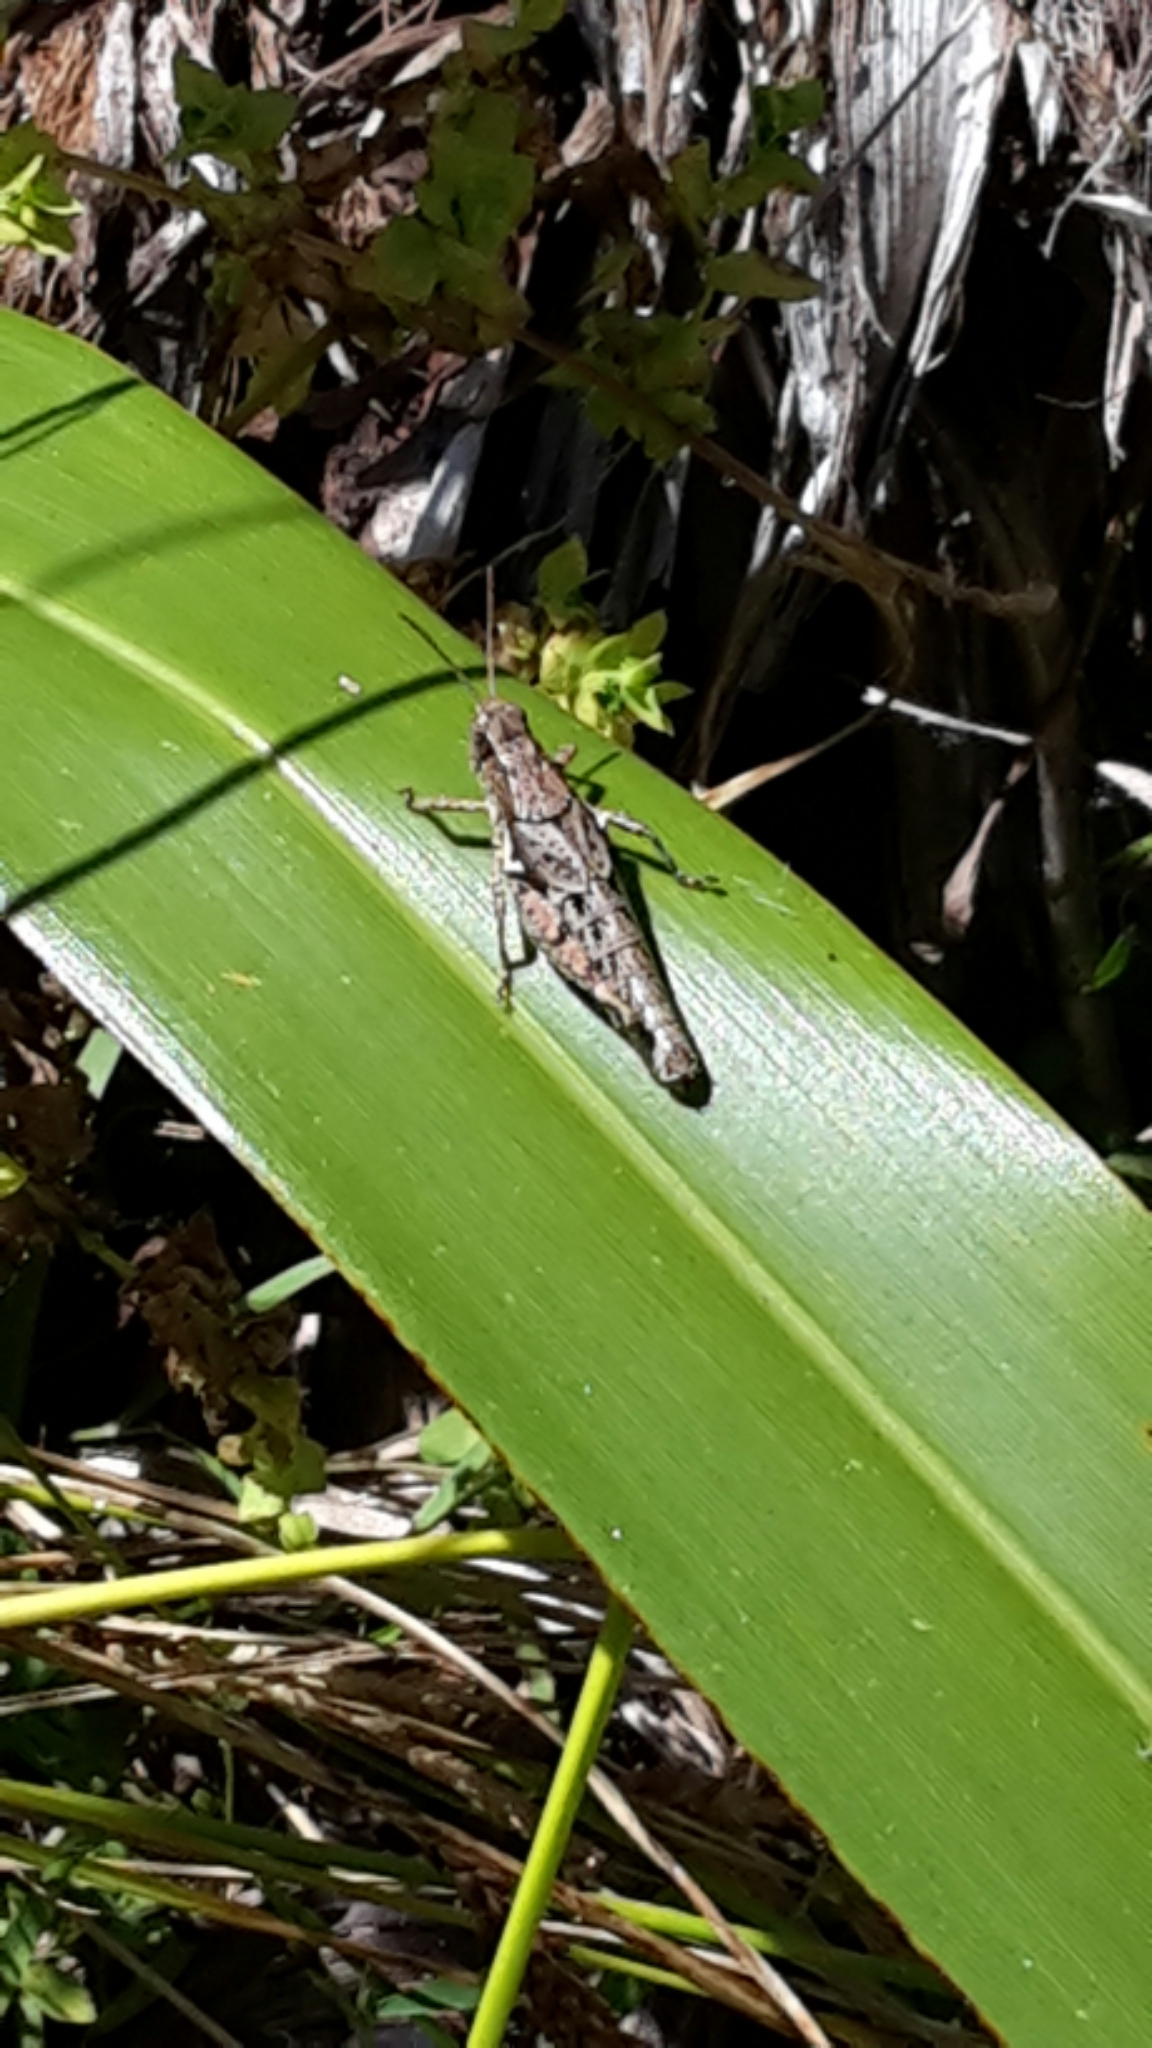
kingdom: Animalia
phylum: Arthropoda
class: Insecta
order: Orthoptera
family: Acrididae
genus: Phaulacridium
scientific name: Phaulacridium marginale
